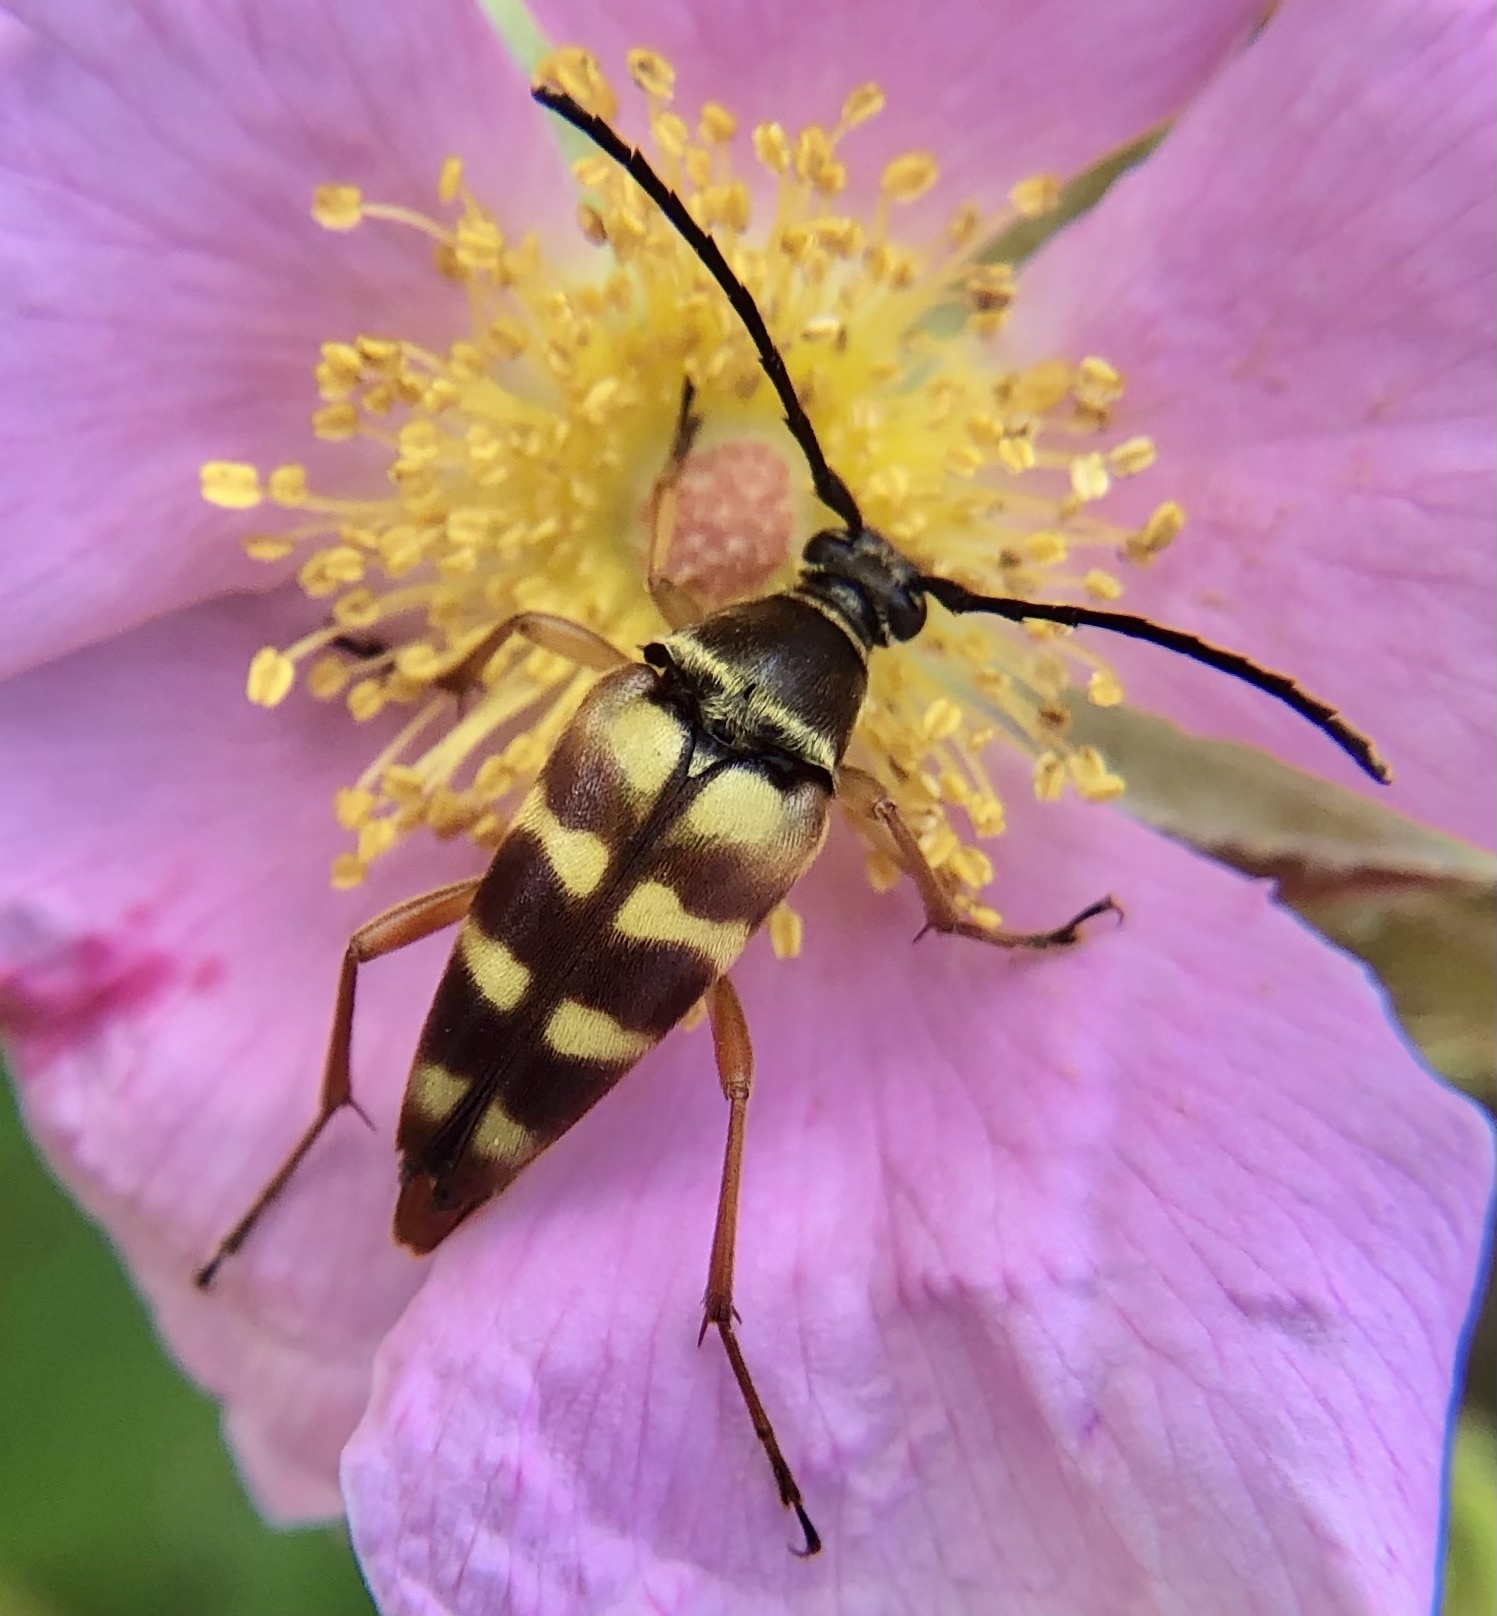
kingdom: Animalia
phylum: Arthropoda
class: Insecta
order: Coleoptera
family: Cerambycidae
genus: Typocerus
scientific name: Typocerus velutinus
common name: Banded longhorn beetle
